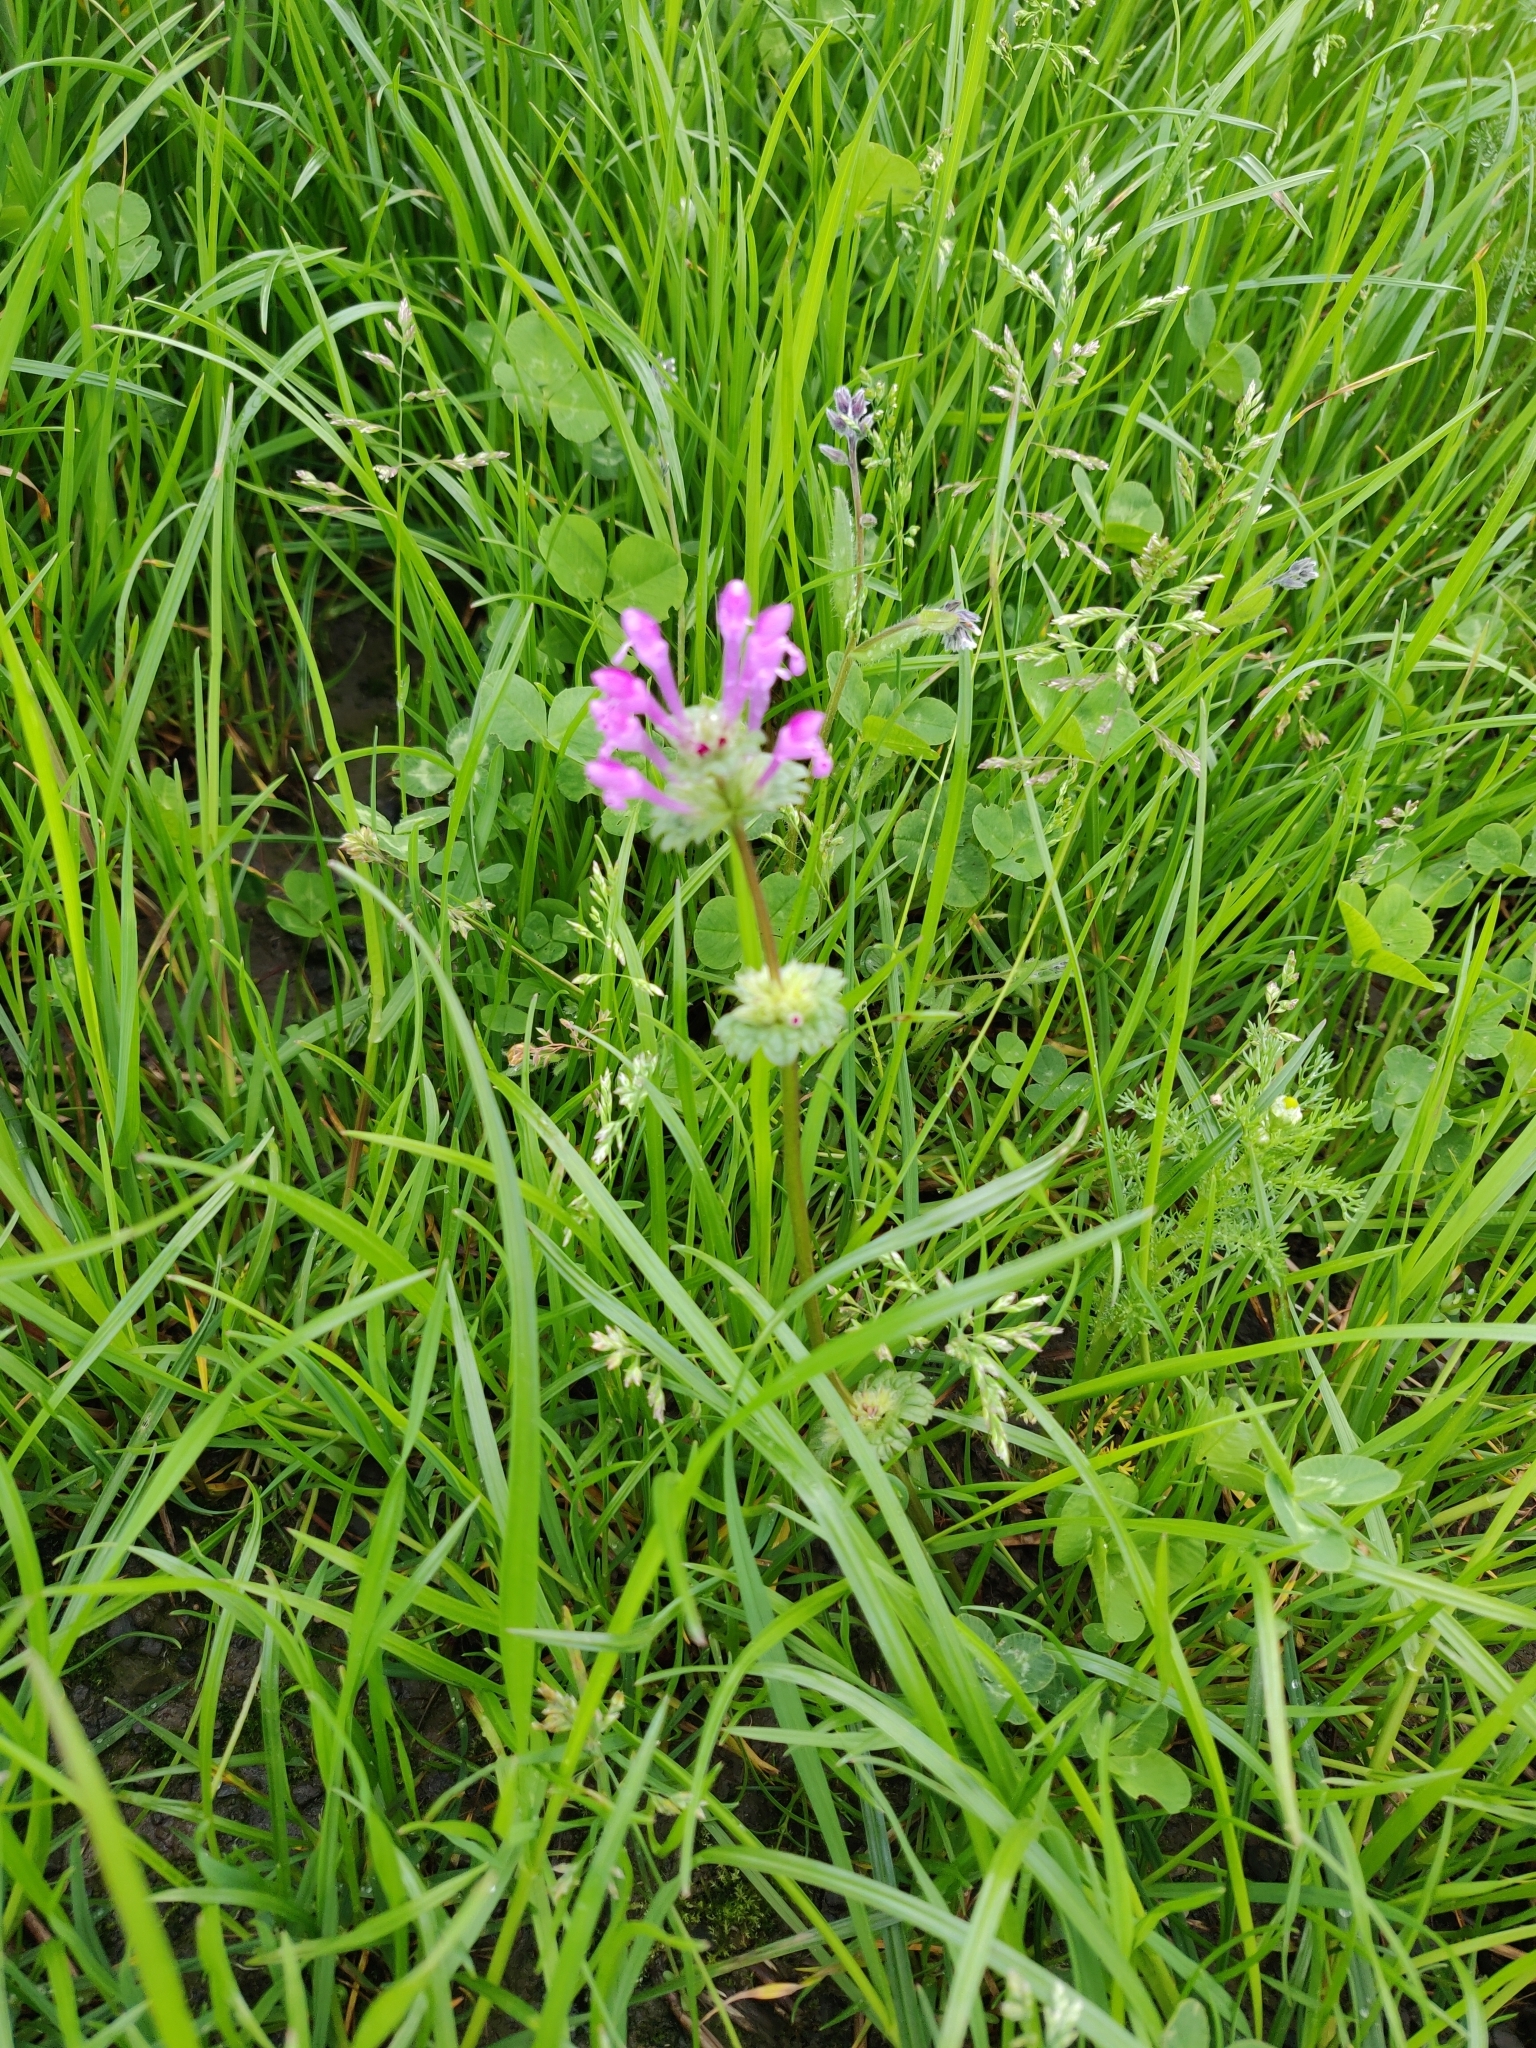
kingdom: Plantae
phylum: Tracheophyta
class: Magnoliopsida
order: Lamiales
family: Lamiaceae
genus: Lamium
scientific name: Lamium amplexicaule
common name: Henbit dead-nettle
